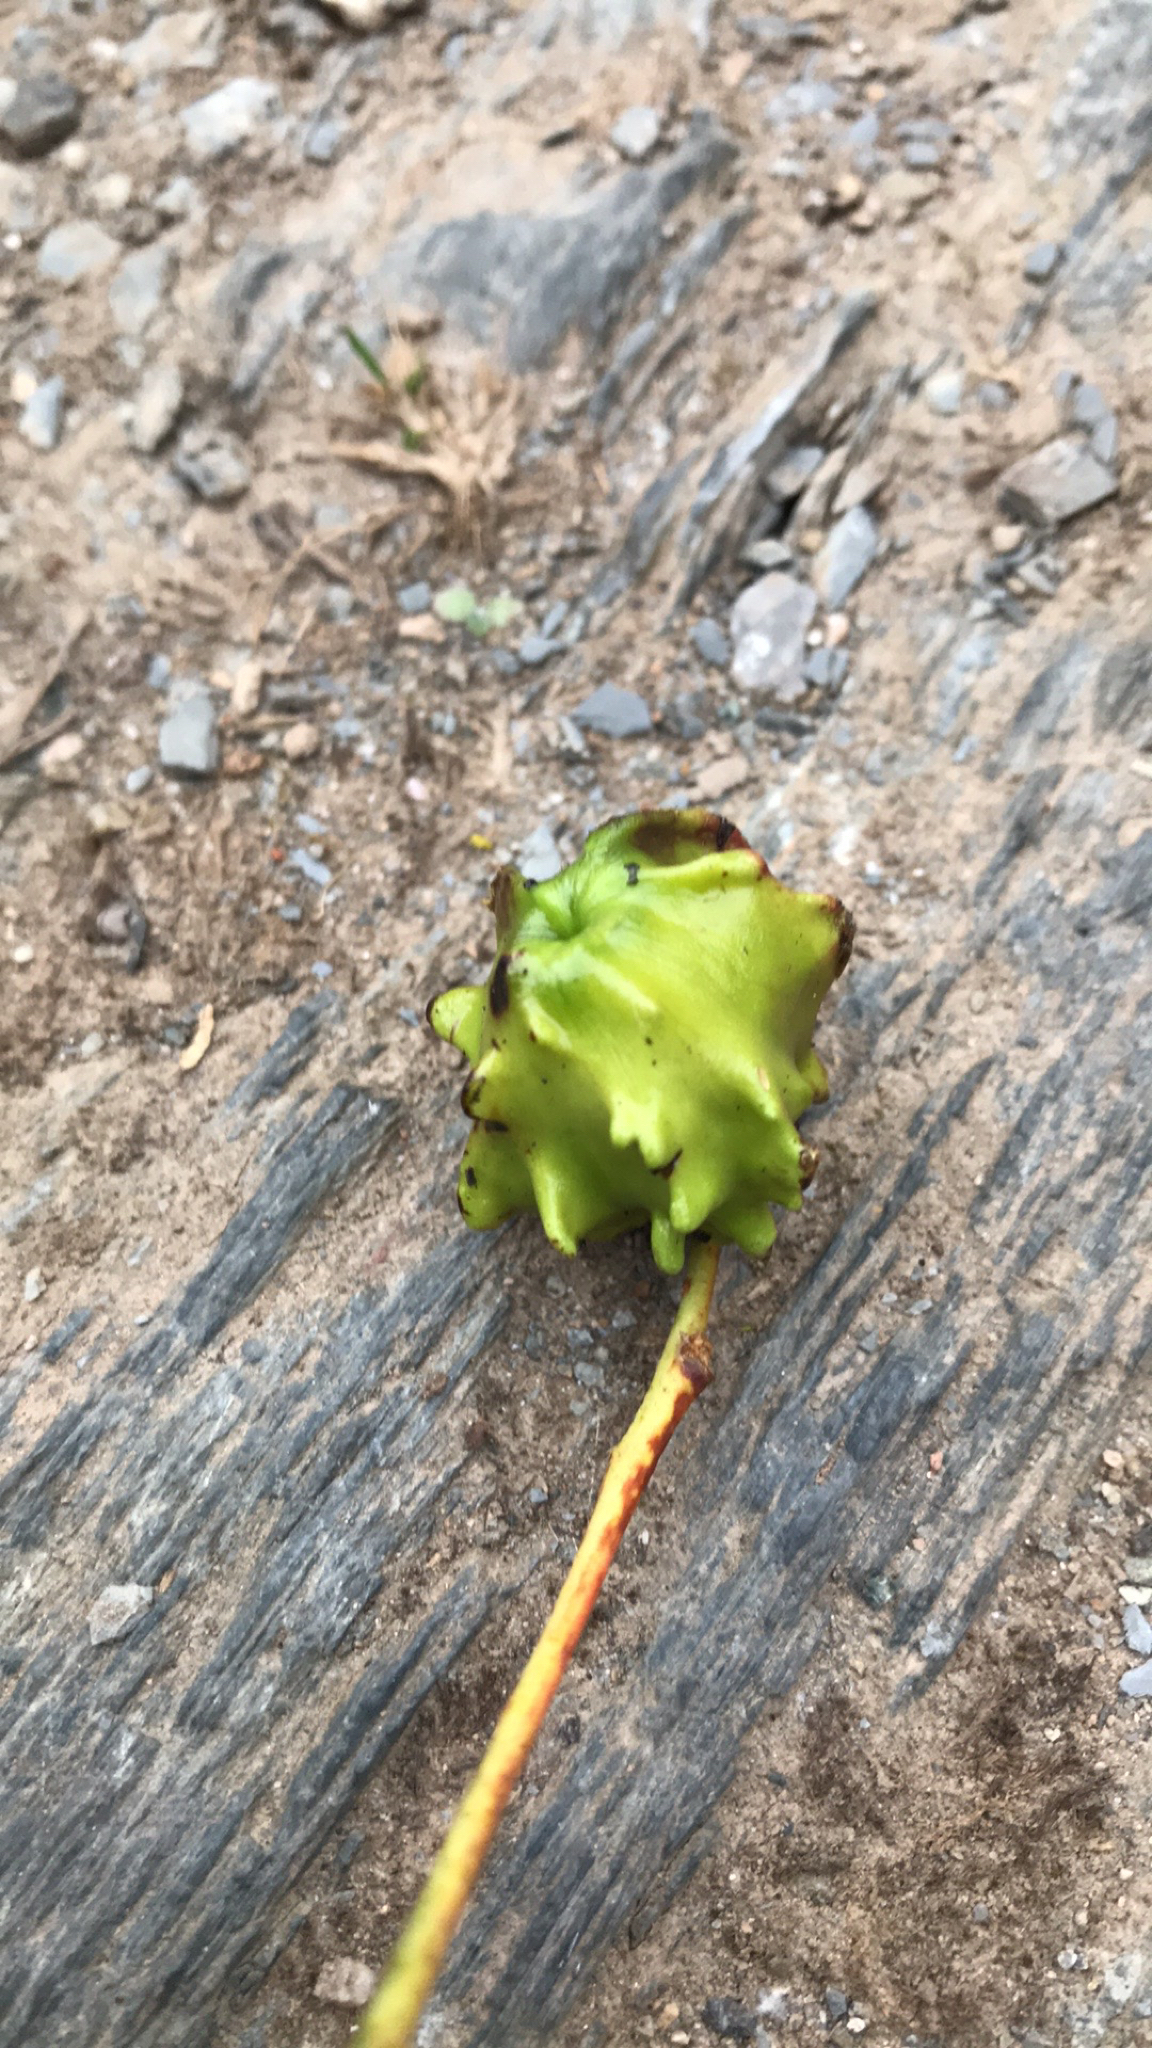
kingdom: Animalia
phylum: Arthropoda
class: Insecta
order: Hymenoptera
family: Cynipidae
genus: Andricus
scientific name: Andricus quercuscalicis
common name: Knopper gall
